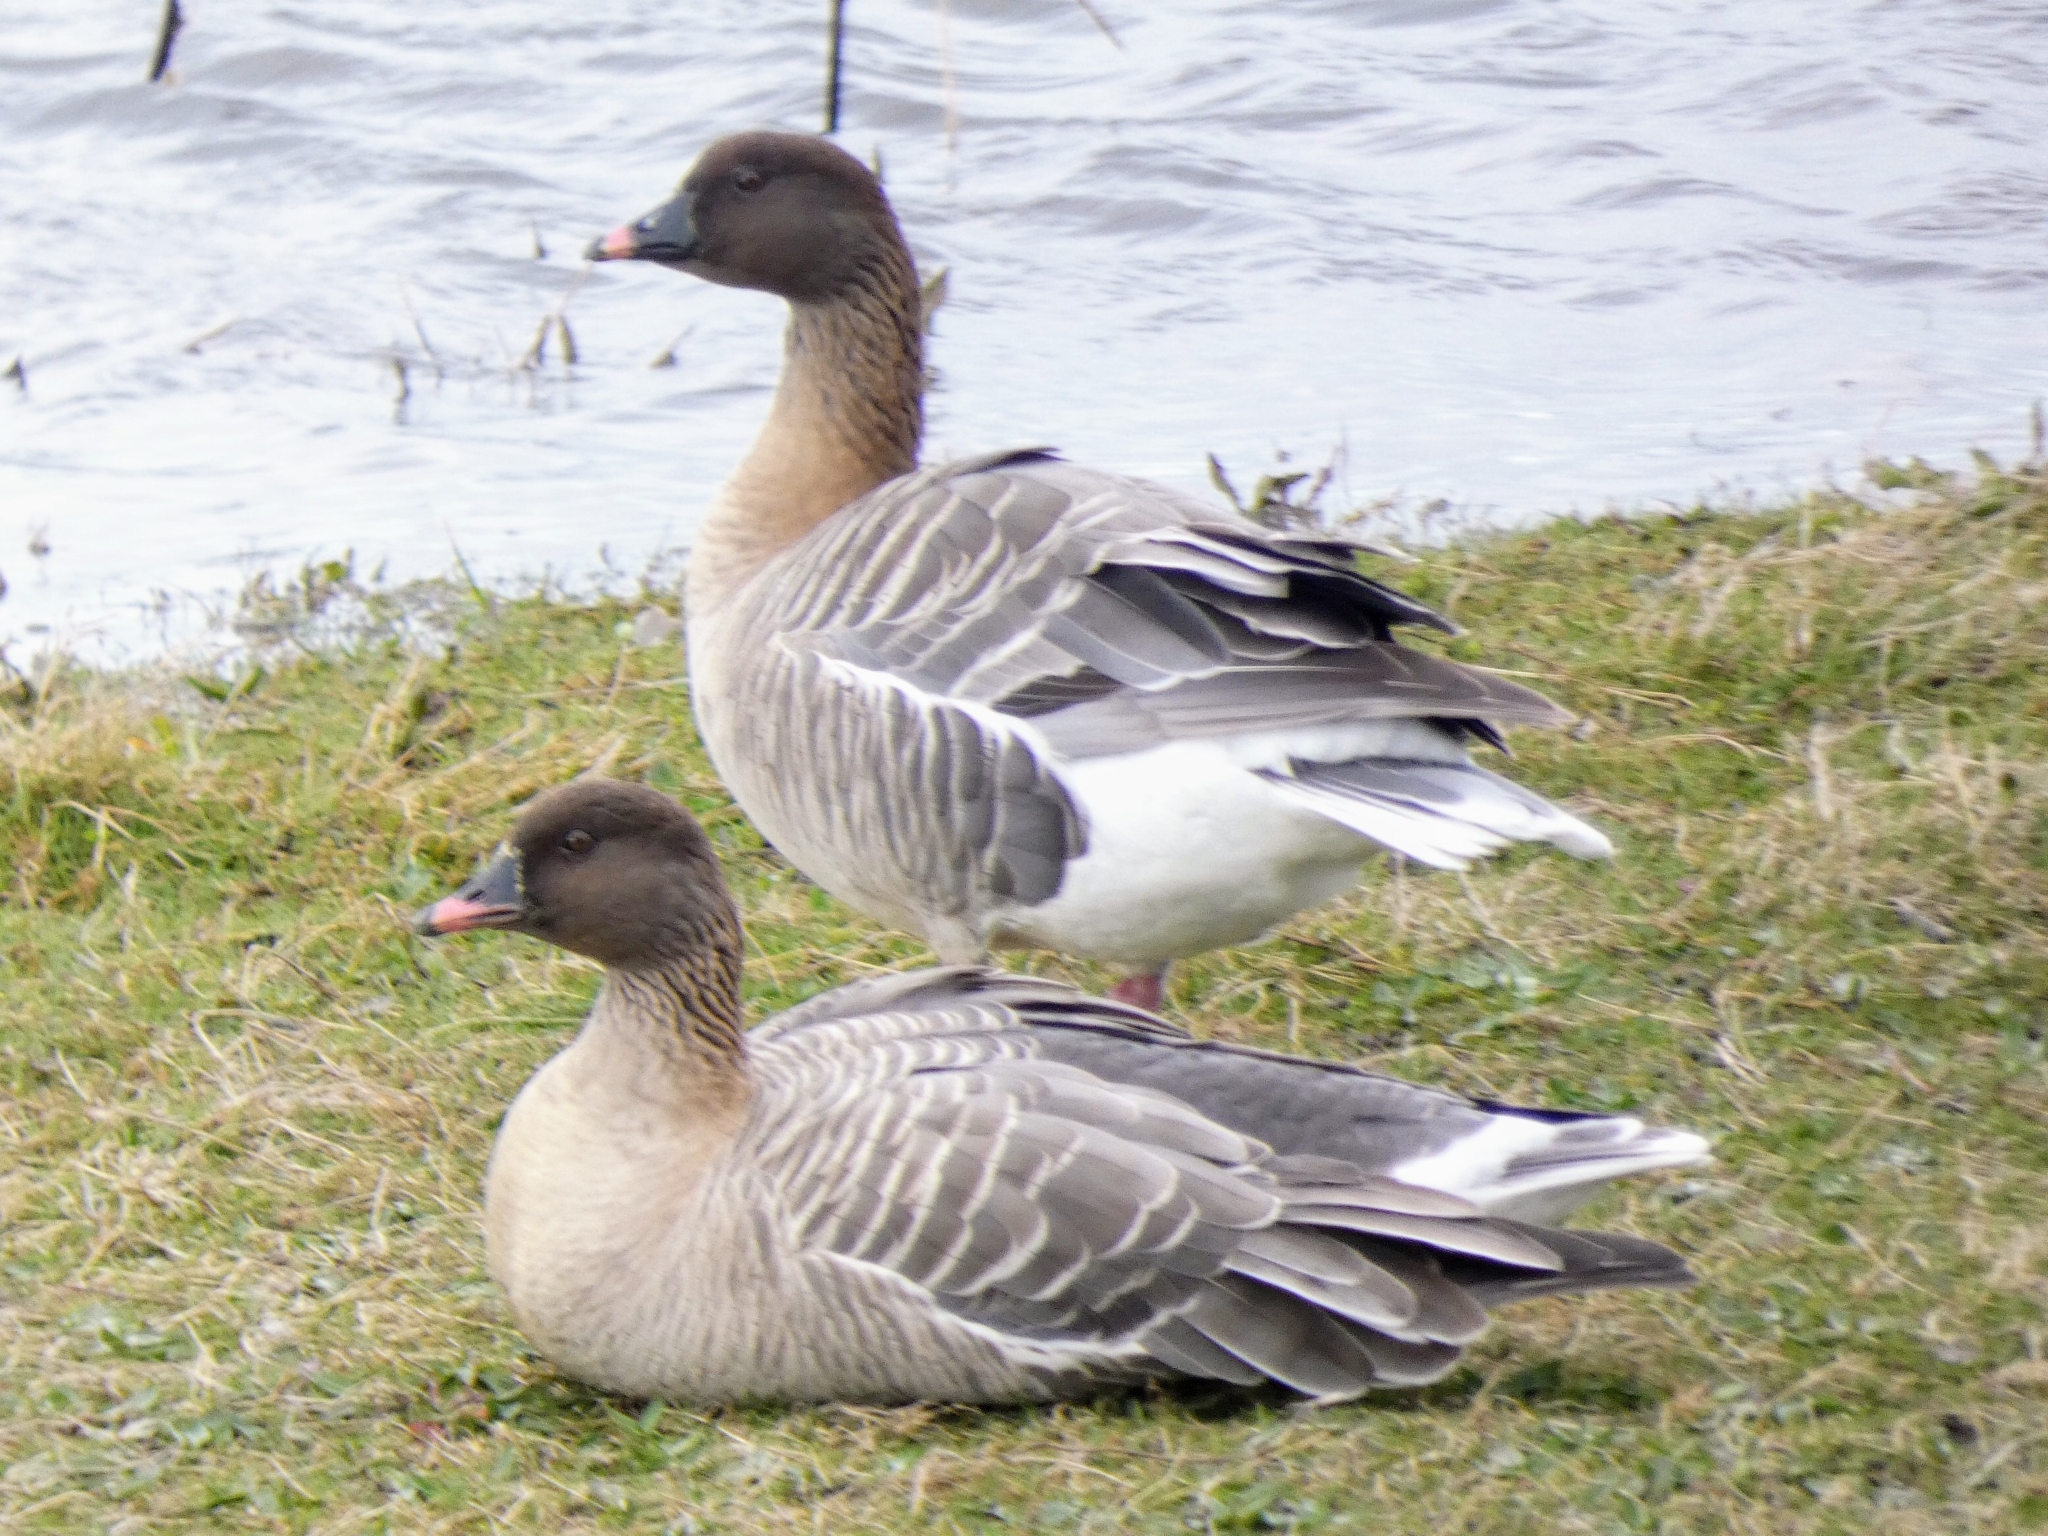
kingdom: Animalia
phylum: Chordata
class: Aves
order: Anseriformes
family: Anatidae
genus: Anser
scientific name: Anser brachyrhynchus
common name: Pink-footed goose
